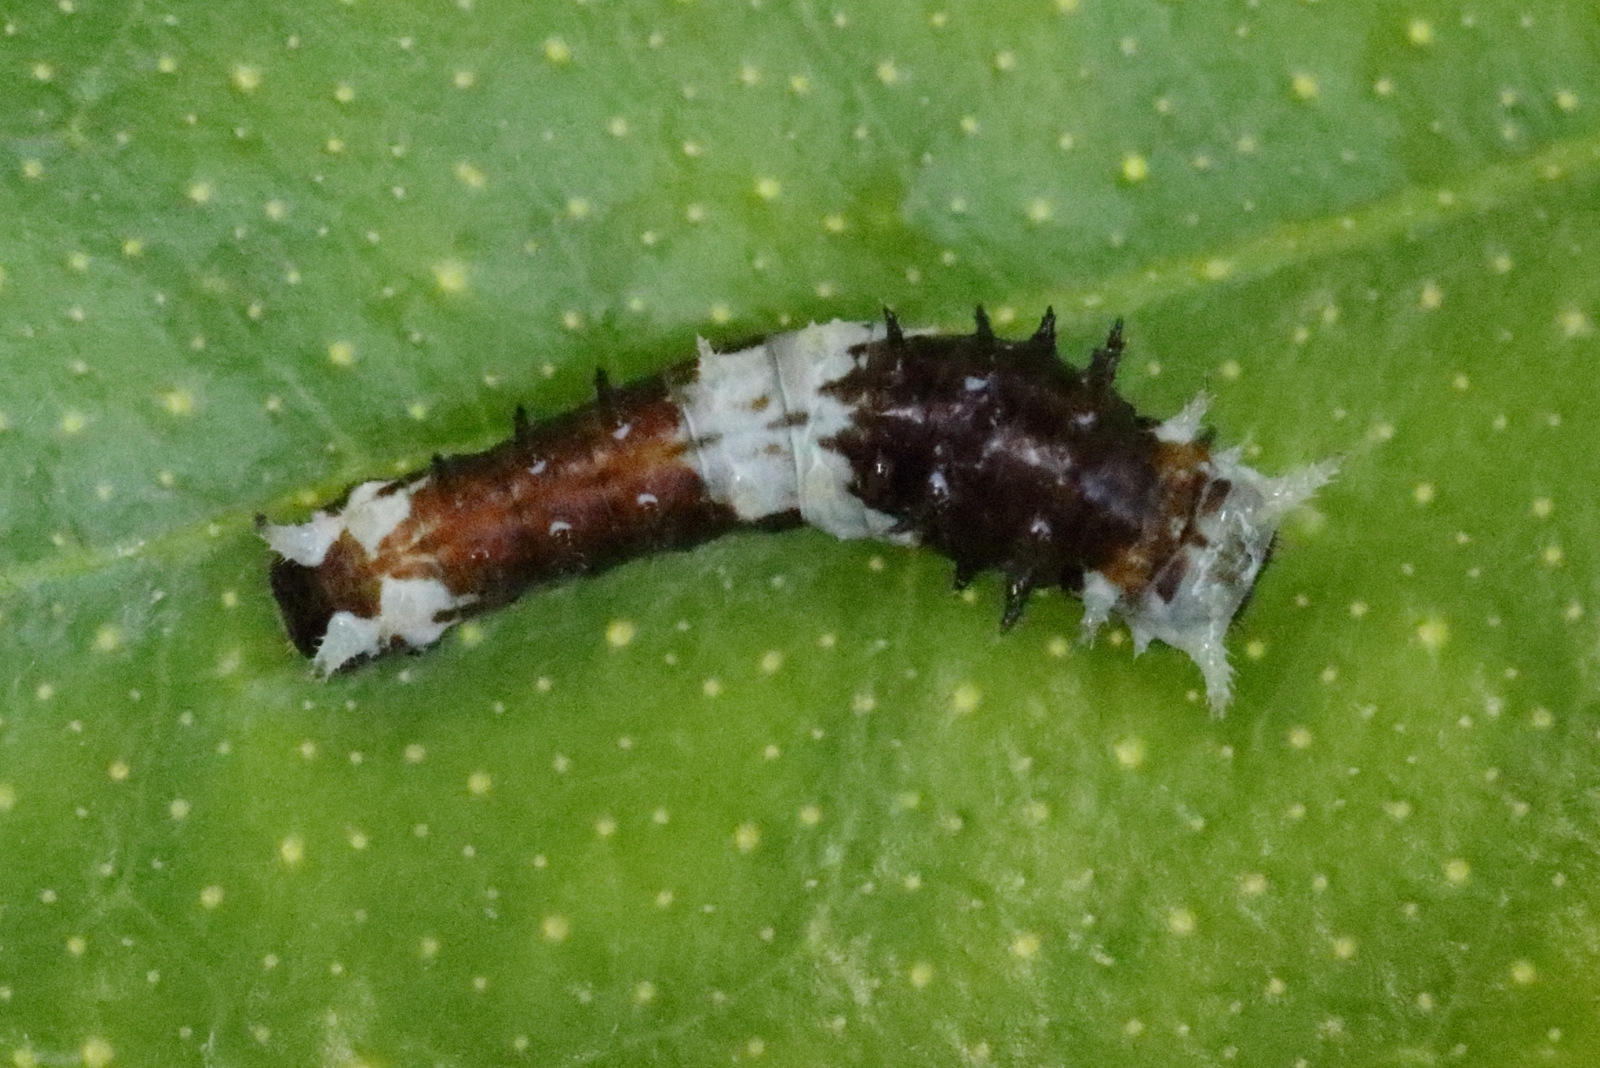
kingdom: Animalia
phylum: Arthropoda
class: Insecta
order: Lepidoptera
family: Papilionidae
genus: Papilio
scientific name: Papilio aegeus
